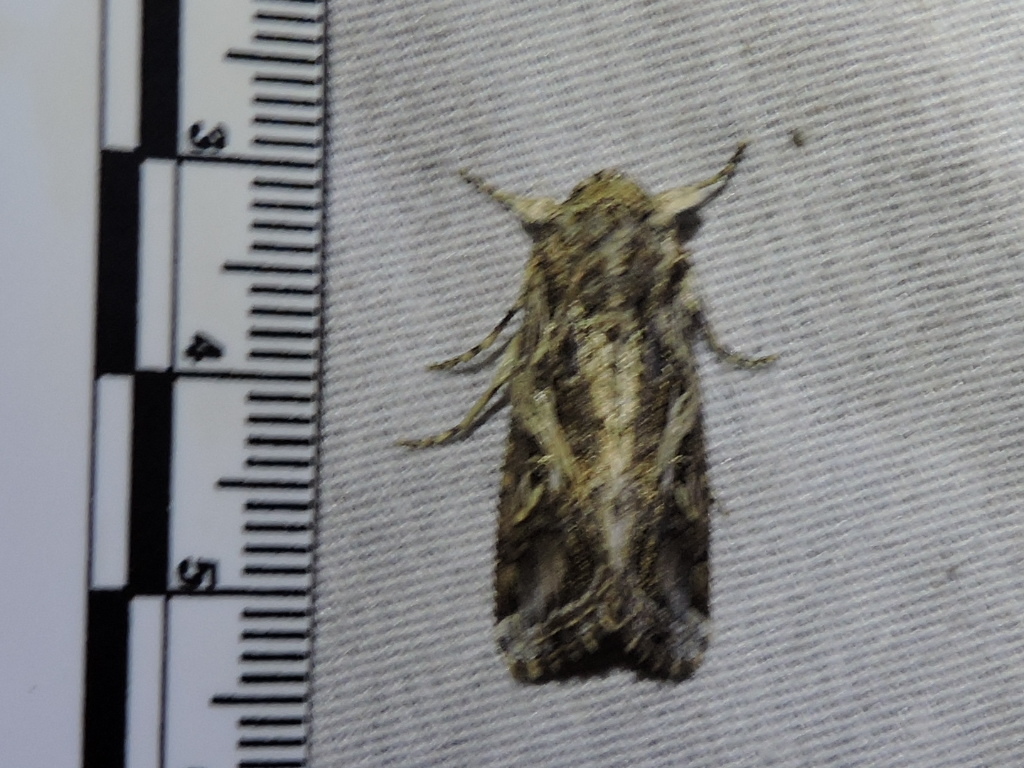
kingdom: Animalia
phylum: Arthropoda
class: Insecta
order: Lepidoptera
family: Noctuidae
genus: Spodoptera
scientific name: Spodoptera ornithogalli
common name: Yellow-striped armyworm
